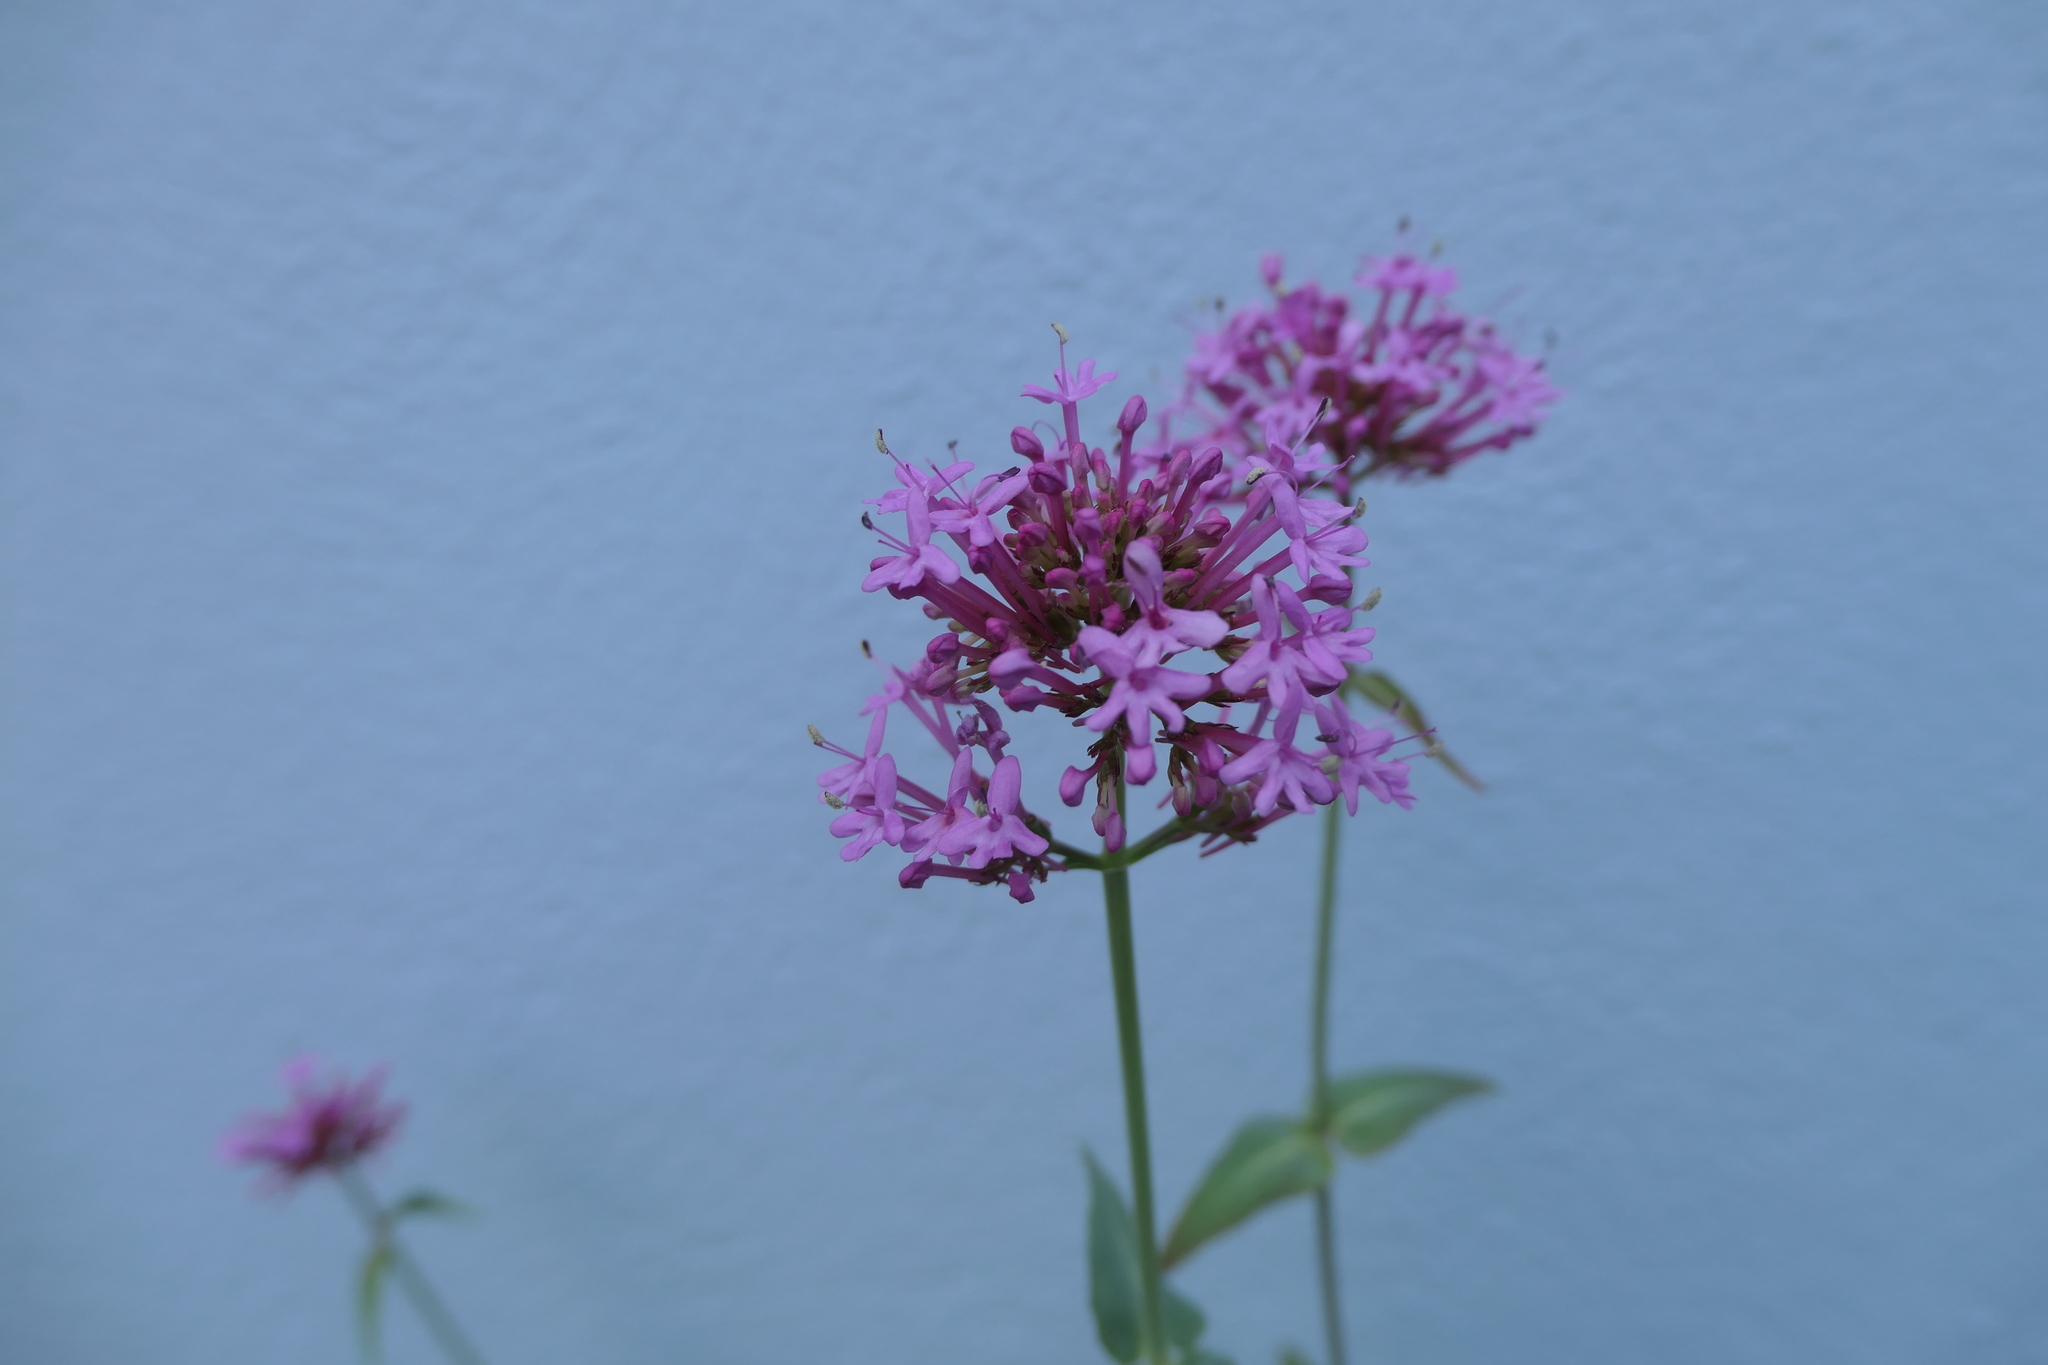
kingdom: Plantae
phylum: Tracheophyta
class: Magnoliopsida
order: Dipsacales
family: Caprifoliaceae
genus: Centranthus
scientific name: Centranthus ruber
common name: Red valerian
